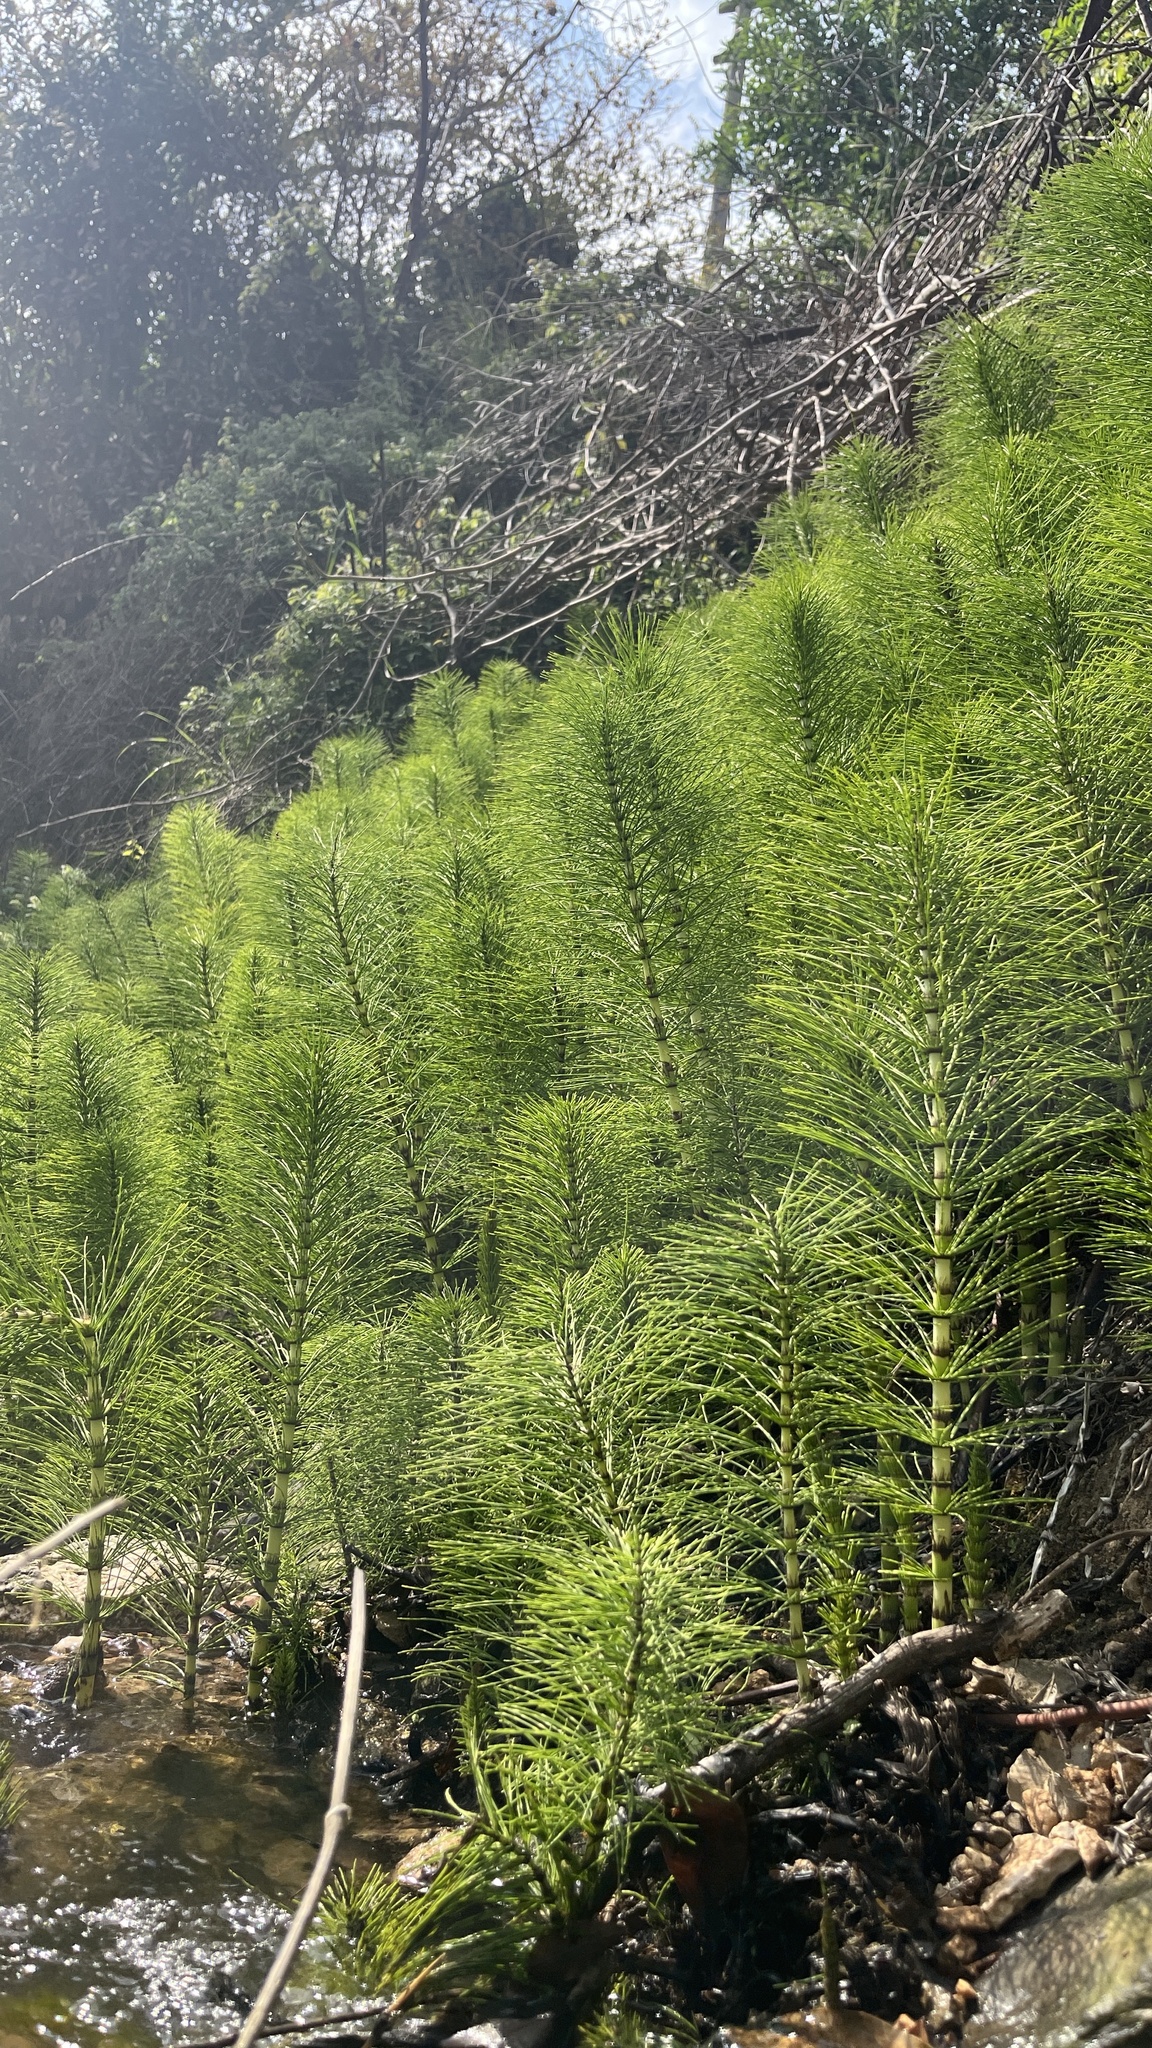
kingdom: Plantae
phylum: Tracheophyta
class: Polypodiopsida
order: Equisetales
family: Equisetaceae
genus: Equisetum
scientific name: Equisetum telmateia
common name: Great horsetail
